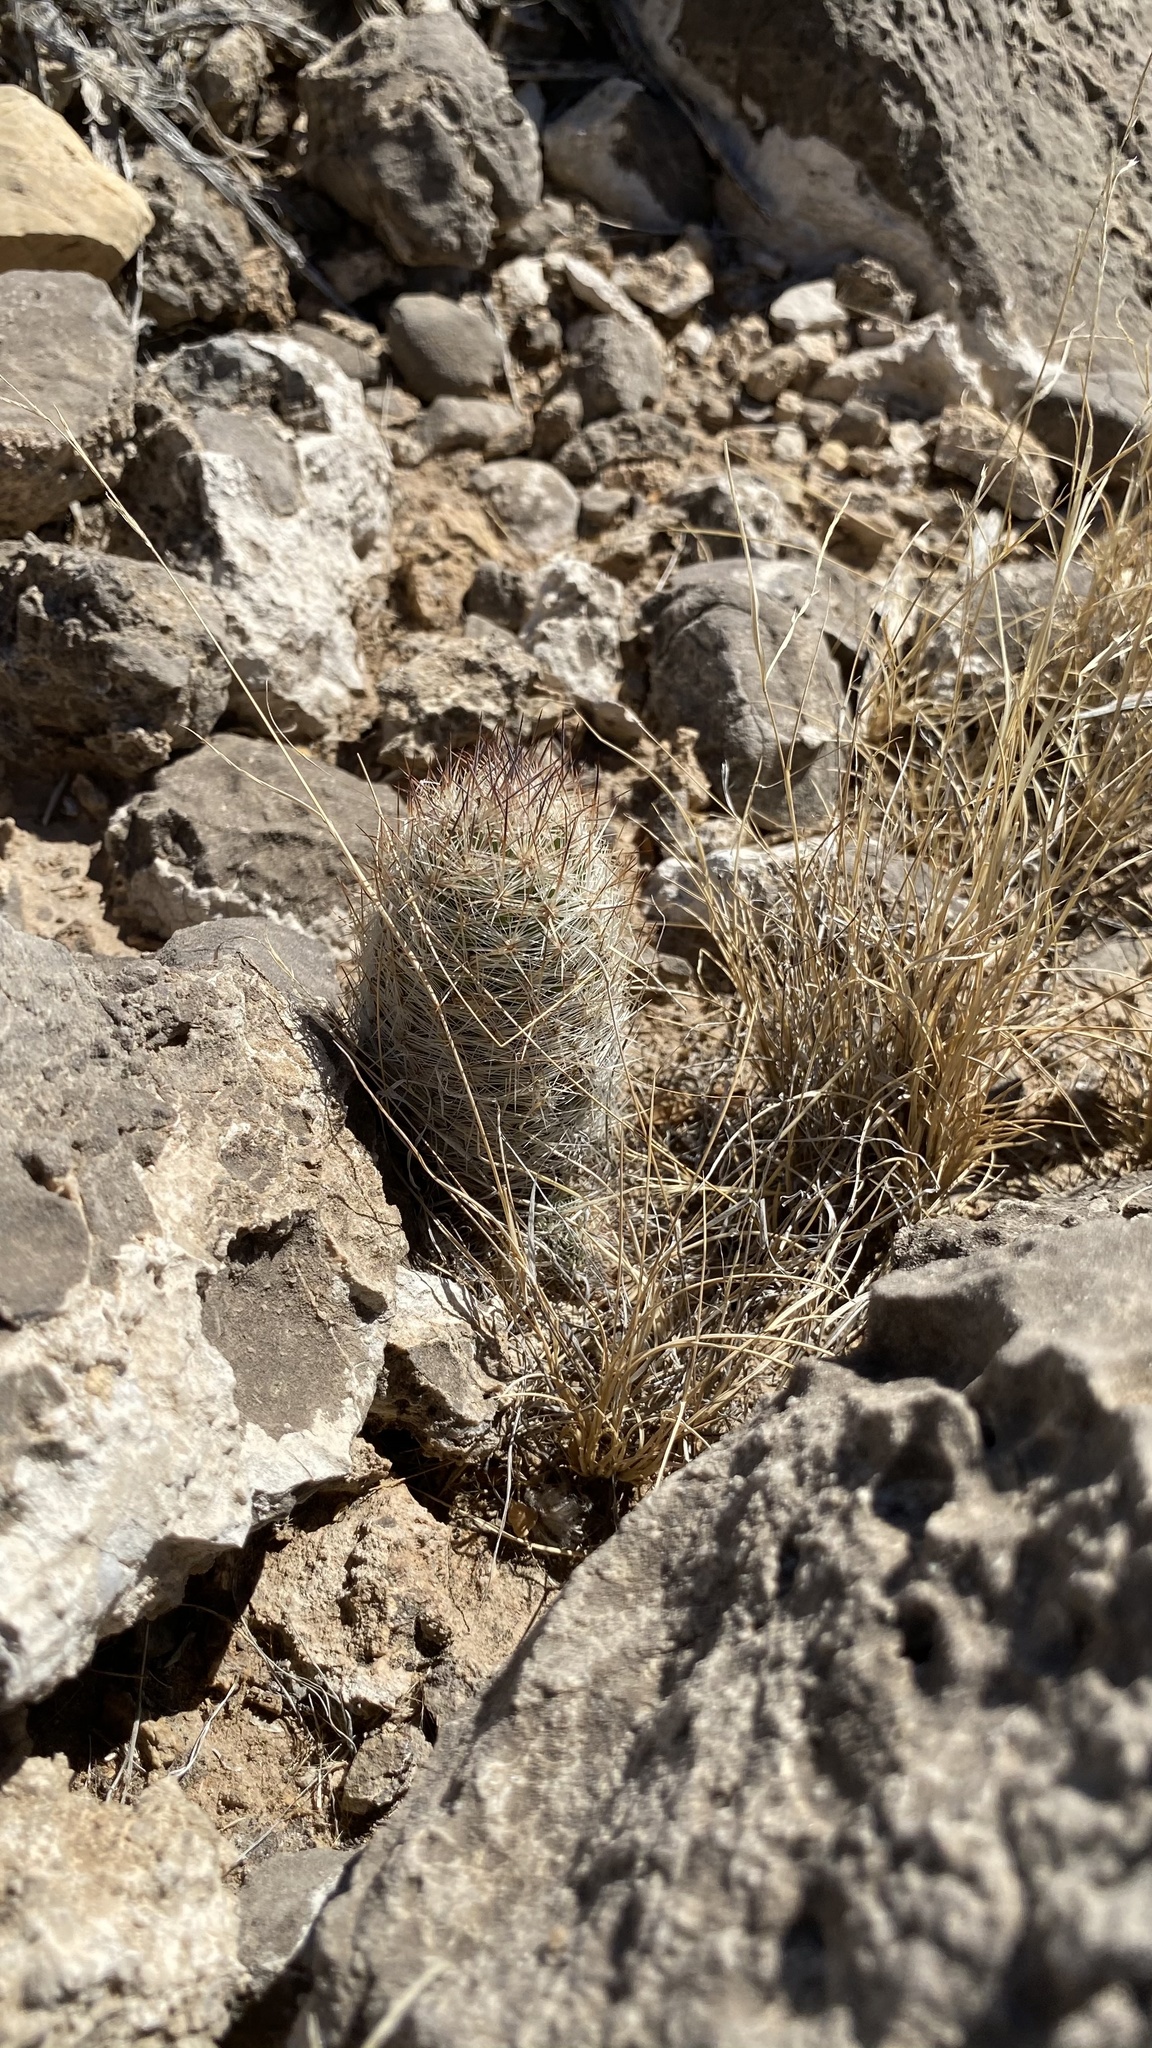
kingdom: Plantae
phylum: Tracheophyta
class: Magnoliopsida
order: Caryophyllales
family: Cactaceae
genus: Pelecyphora
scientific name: Pelecyphora tuberculosa
